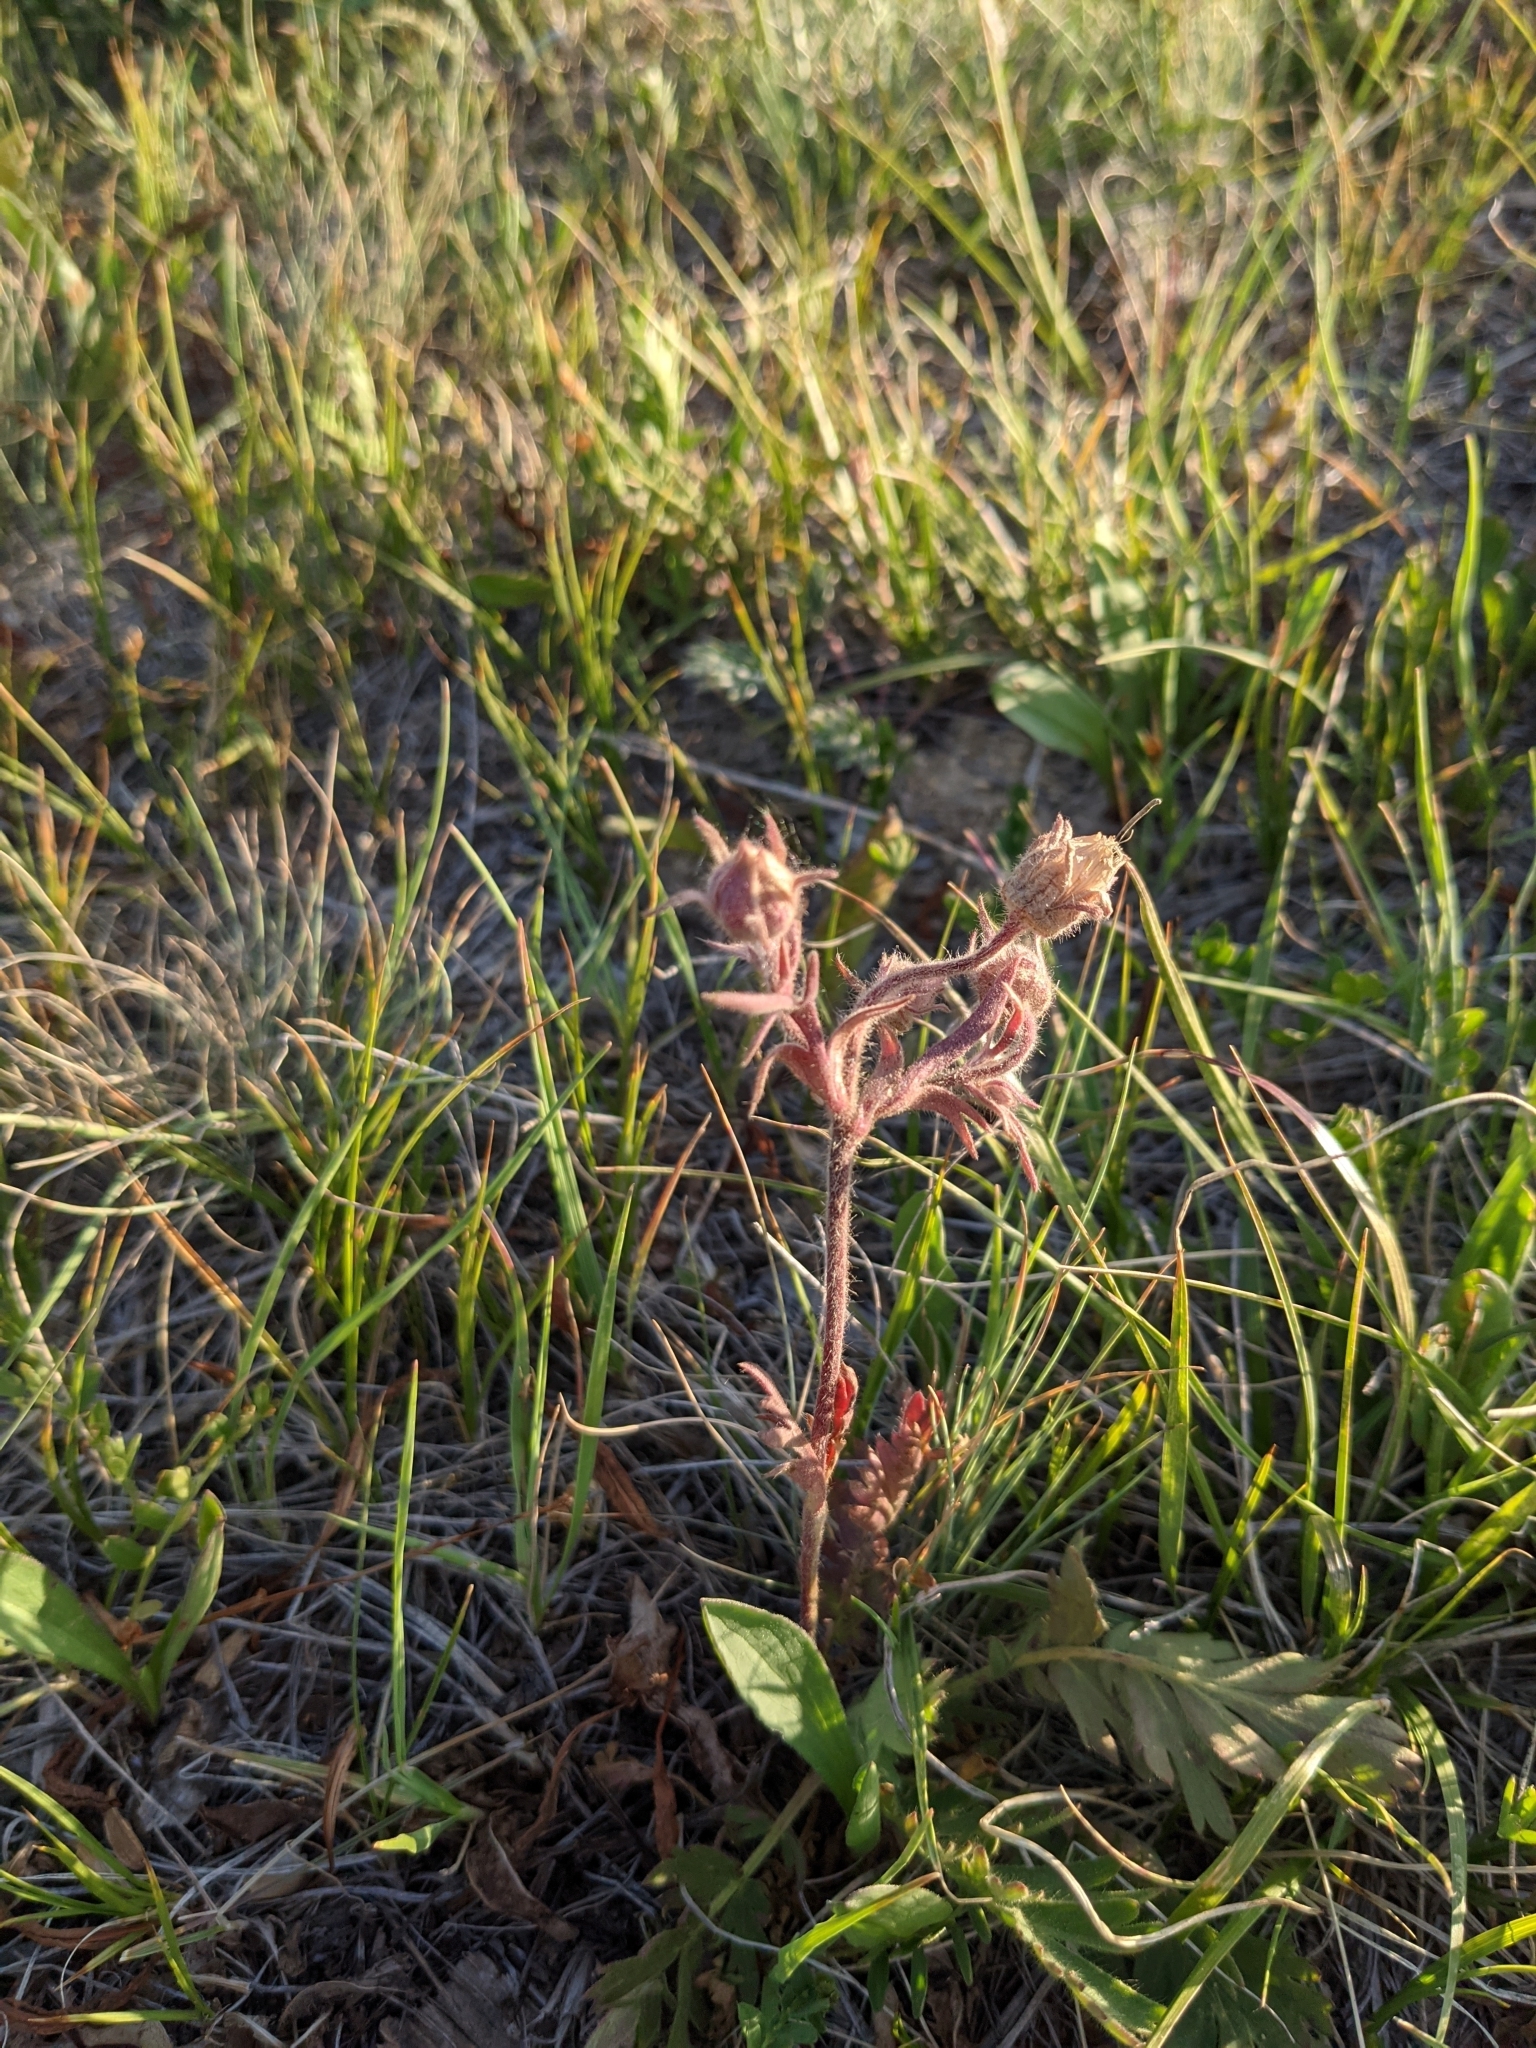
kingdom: Plantae
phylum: Tracheophyta
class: Magnoliopsida
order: Rosales
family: Rosaceae
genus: Geum
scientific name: Geum triflorum
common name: Old man's whiskers
